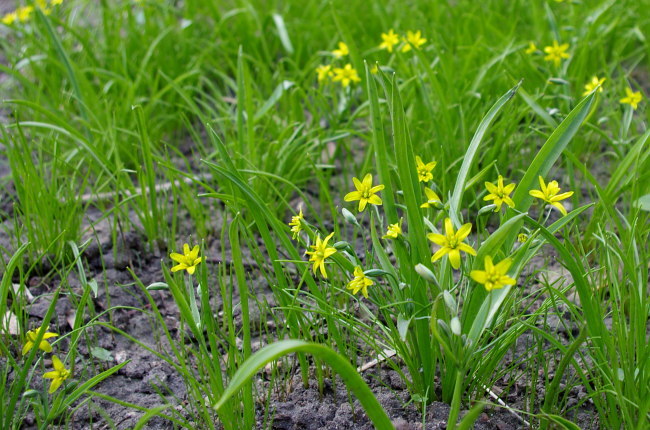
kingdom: Plantae
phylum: Tracheophyta
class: Liliopsida
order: Liliales
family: Liliaceae
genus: Gagea
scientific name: Gagea lutea
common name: Yellow star-of-bethlehem
